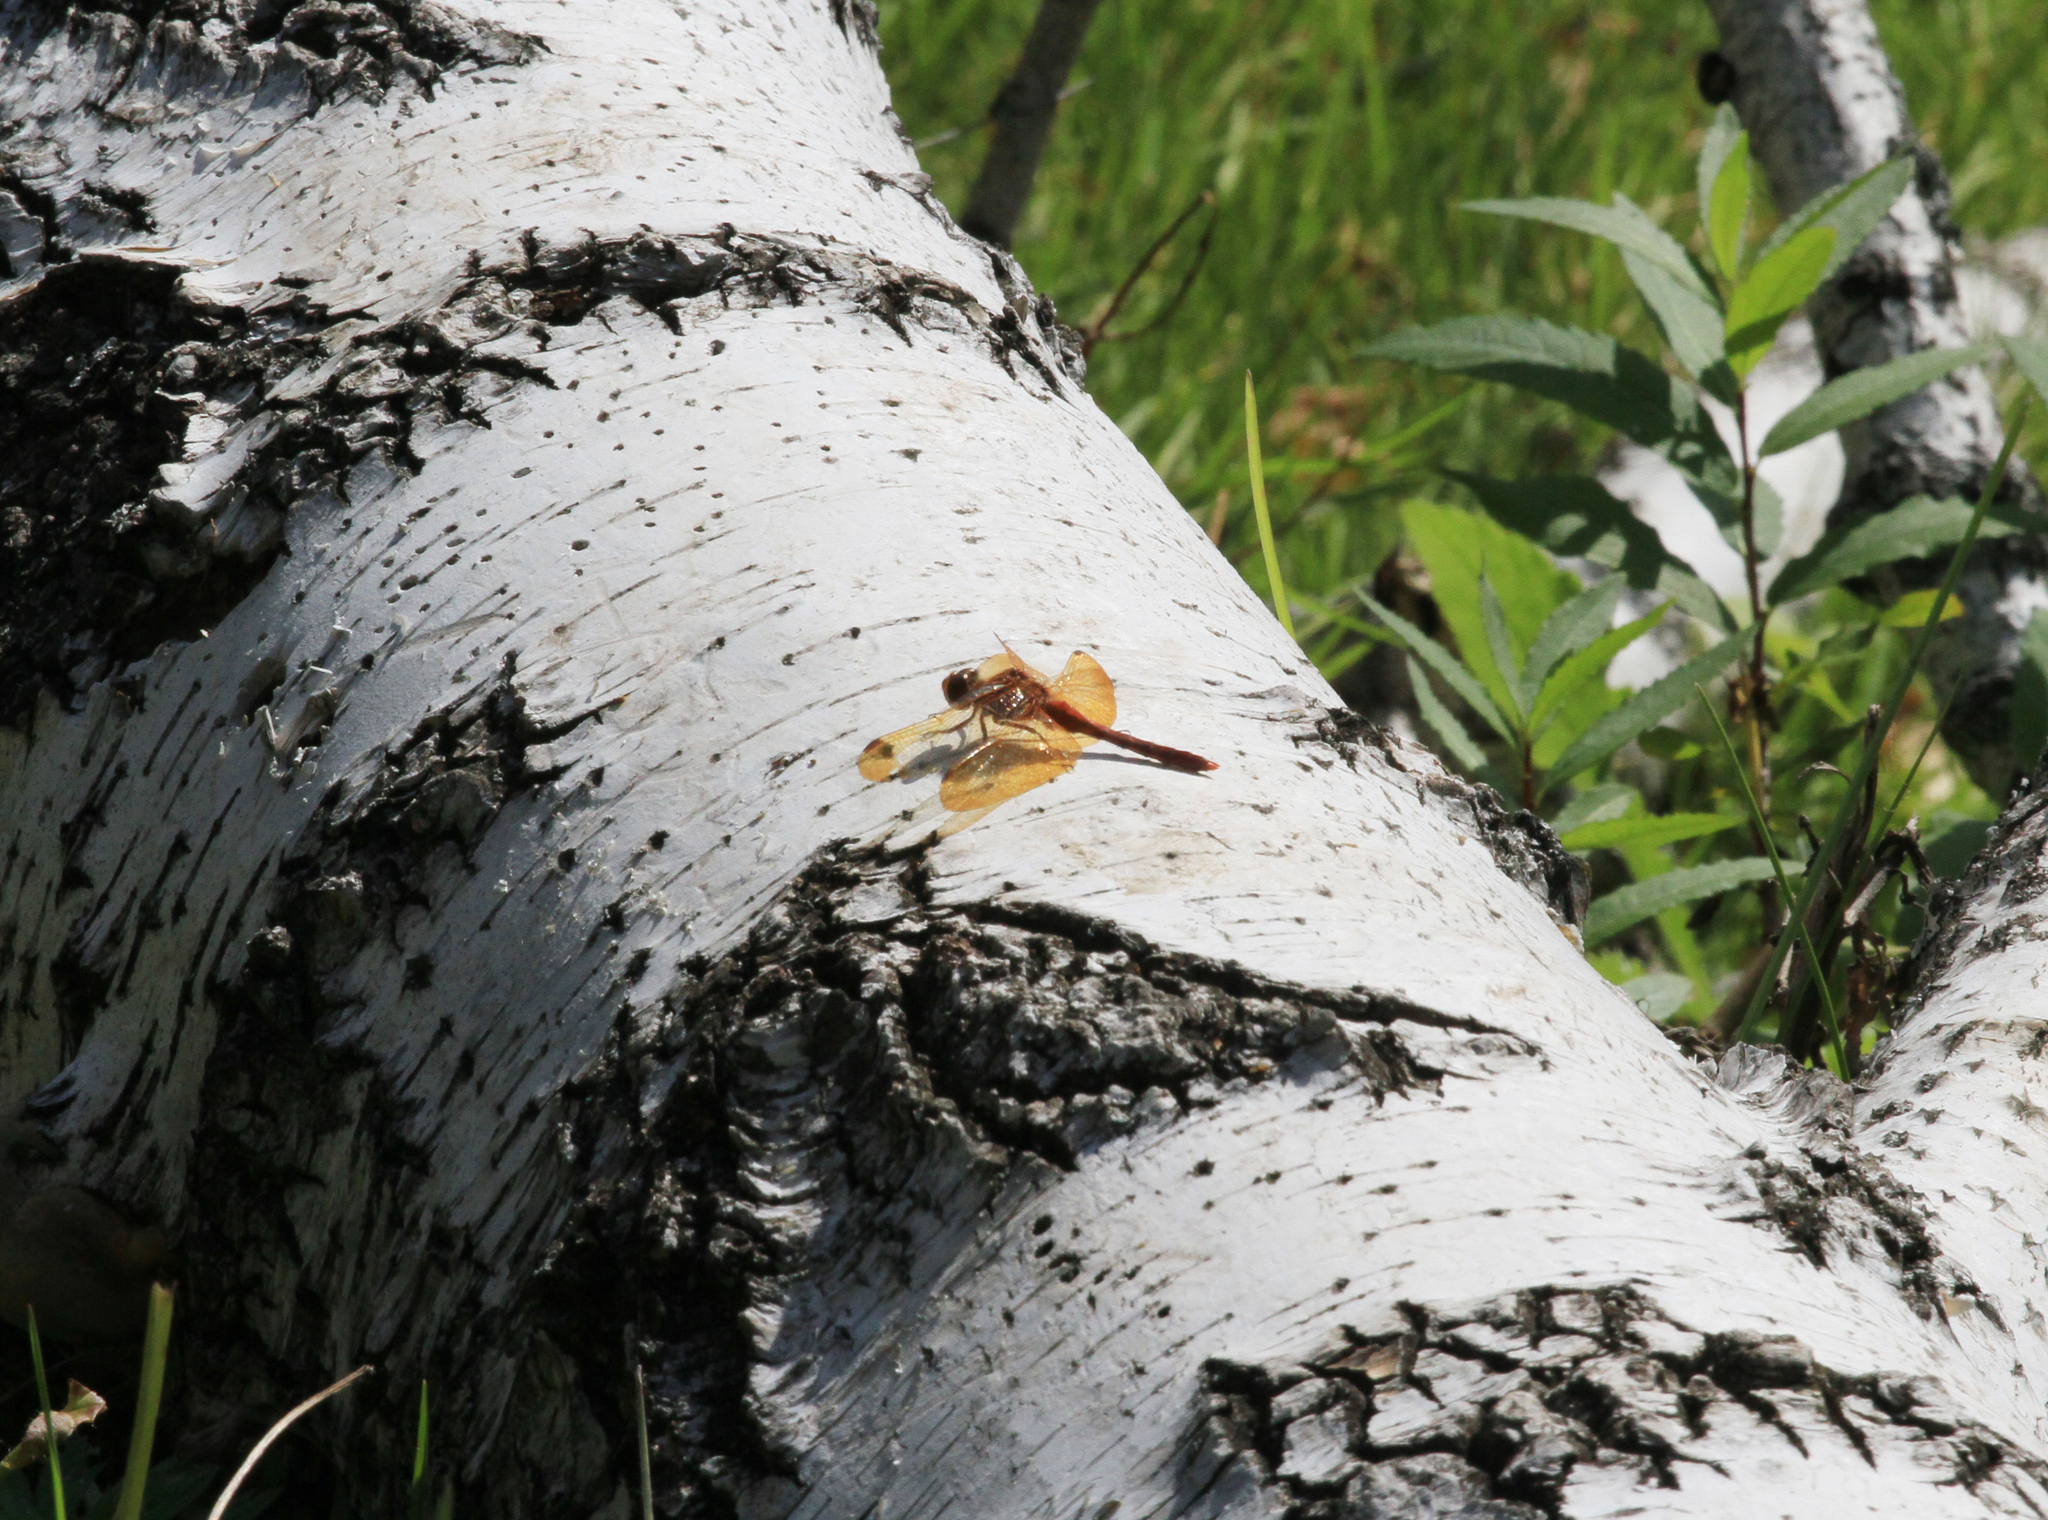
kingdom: Animalia
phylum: Arthropoda
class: Insecta
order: Odonata
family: Libellulidae
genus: Sympetrum
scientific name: Sympetrum croceolum
